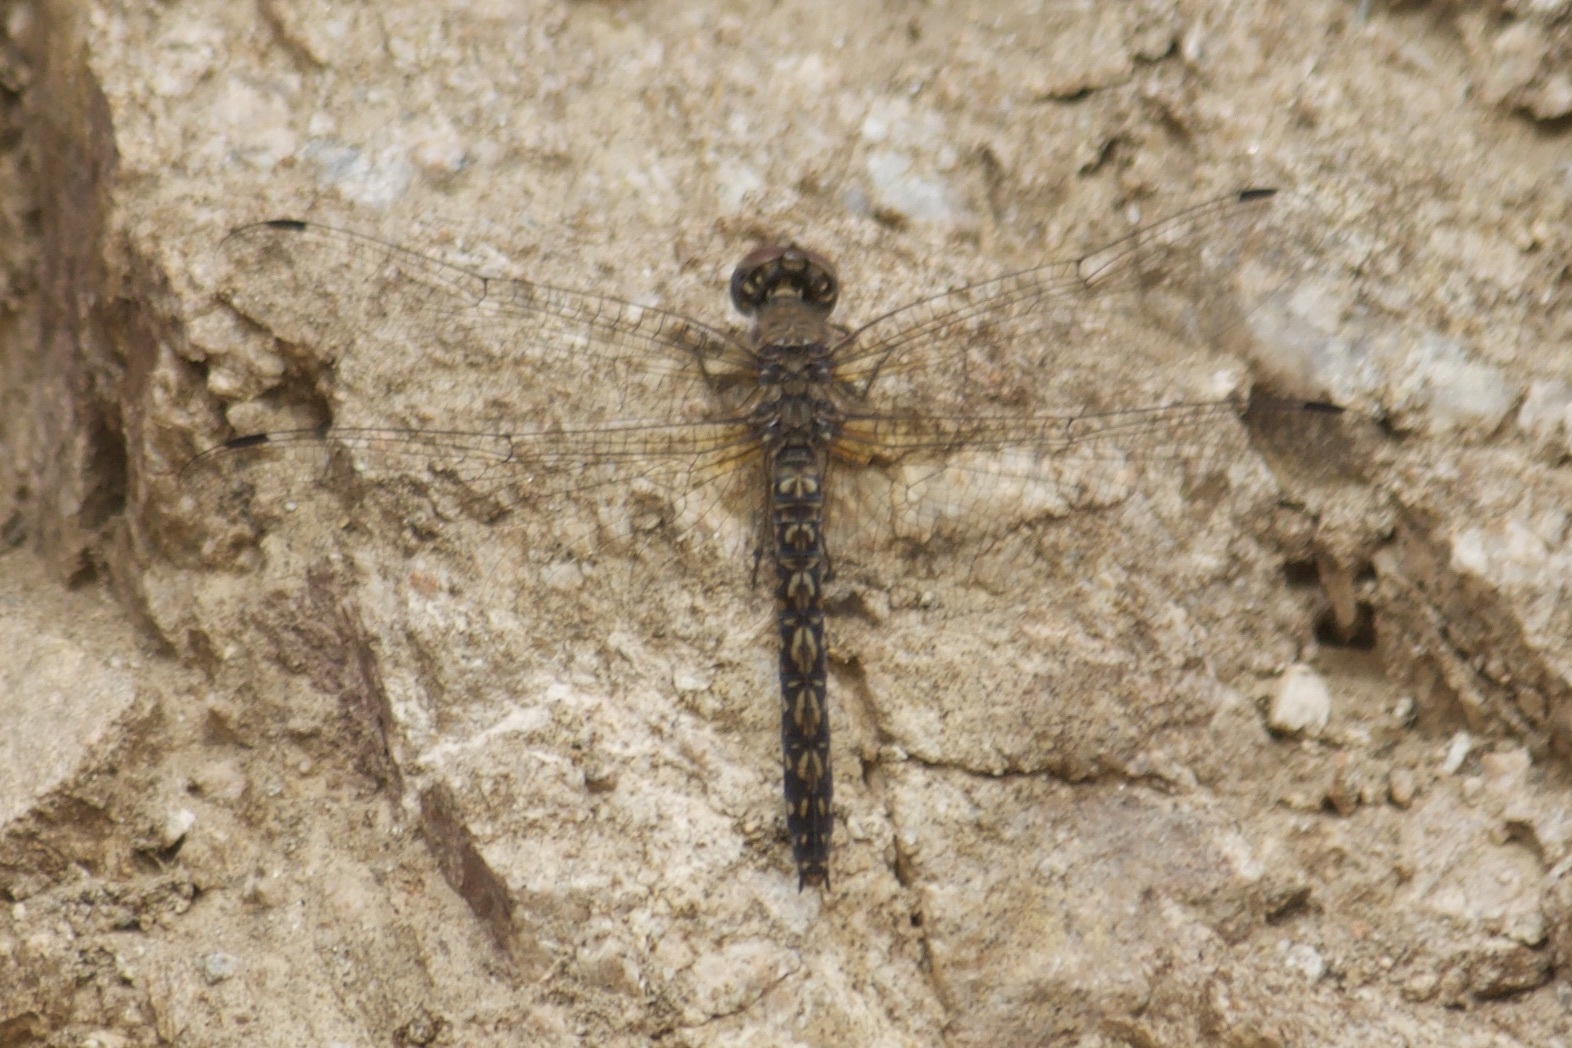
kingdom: Animalia
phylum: Arthropoda
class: Insecta
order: Odonata
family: Libellulidae
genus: Paltothemis
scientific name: Paltothemis lineatipes
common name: Red rock skimmer
